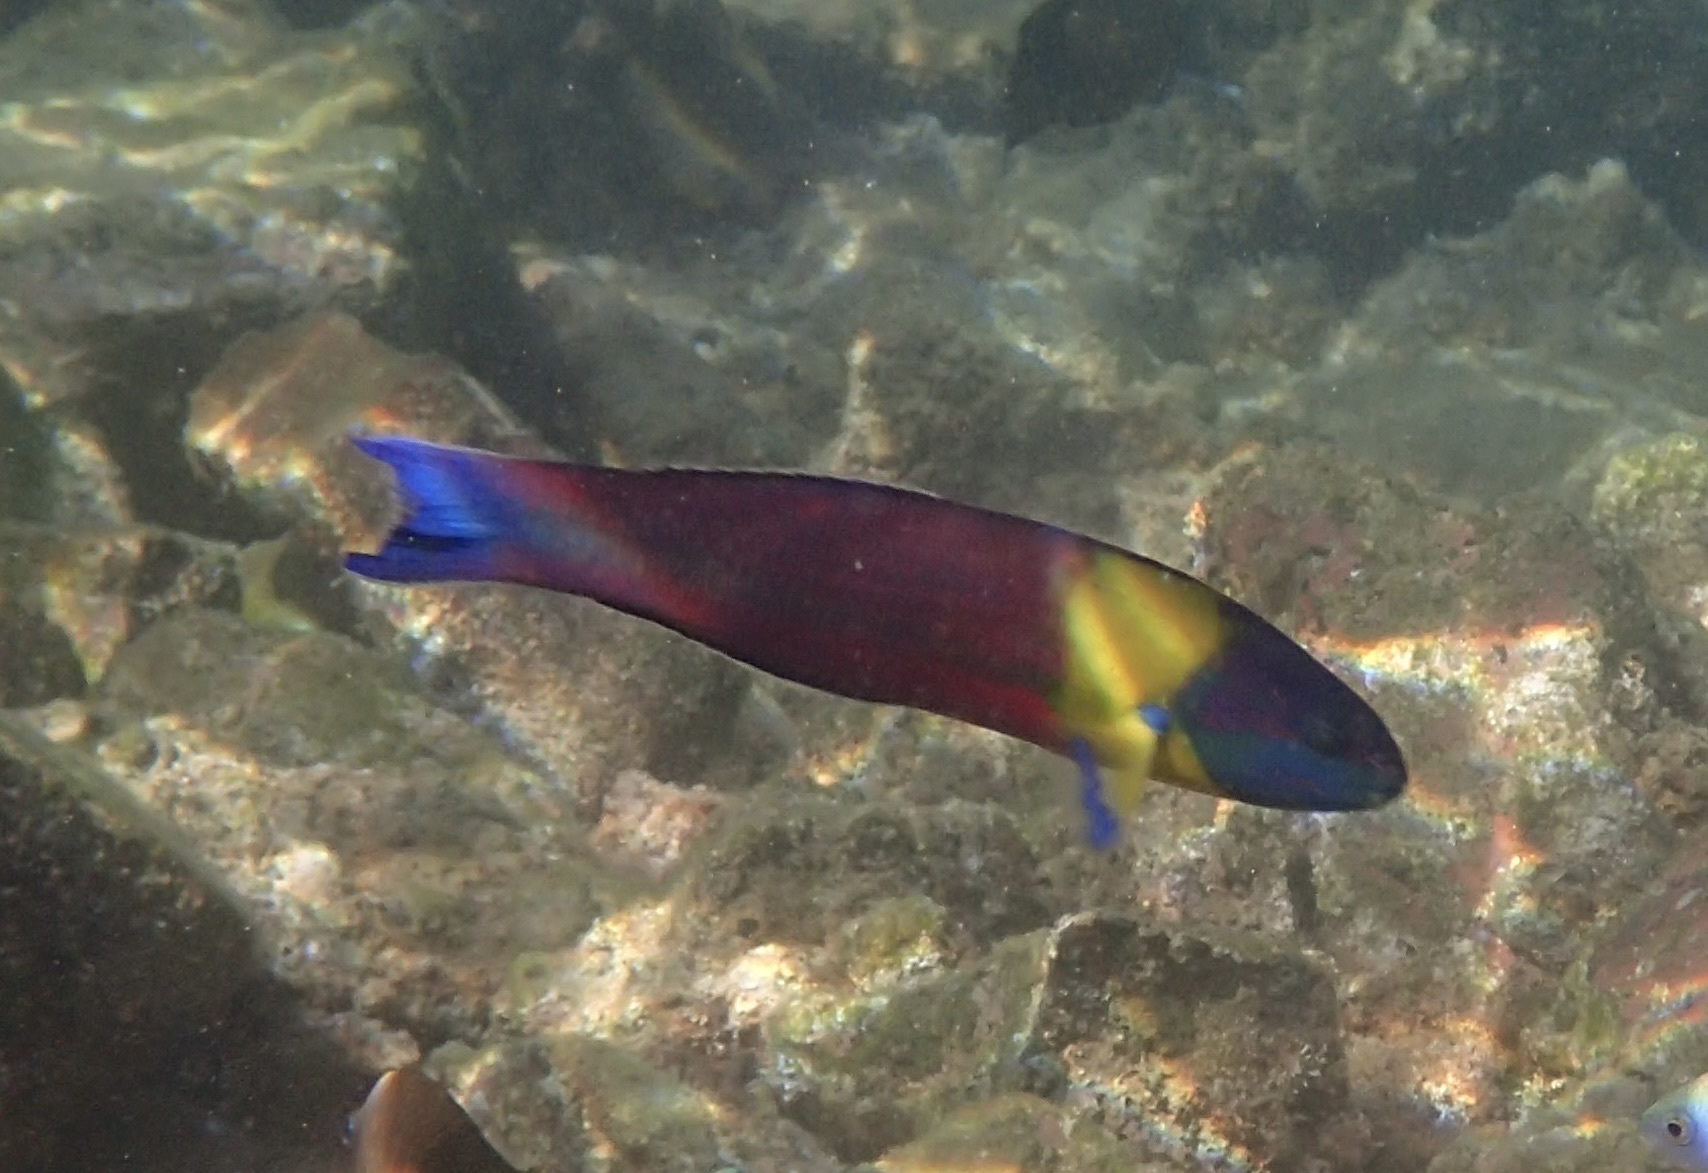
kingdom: Animalia
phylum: Chordata
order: Perciformes
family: Labridae
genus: Thalassoma
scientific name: Thalassoma lucasanum
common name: Cortez rainbow wrasse
